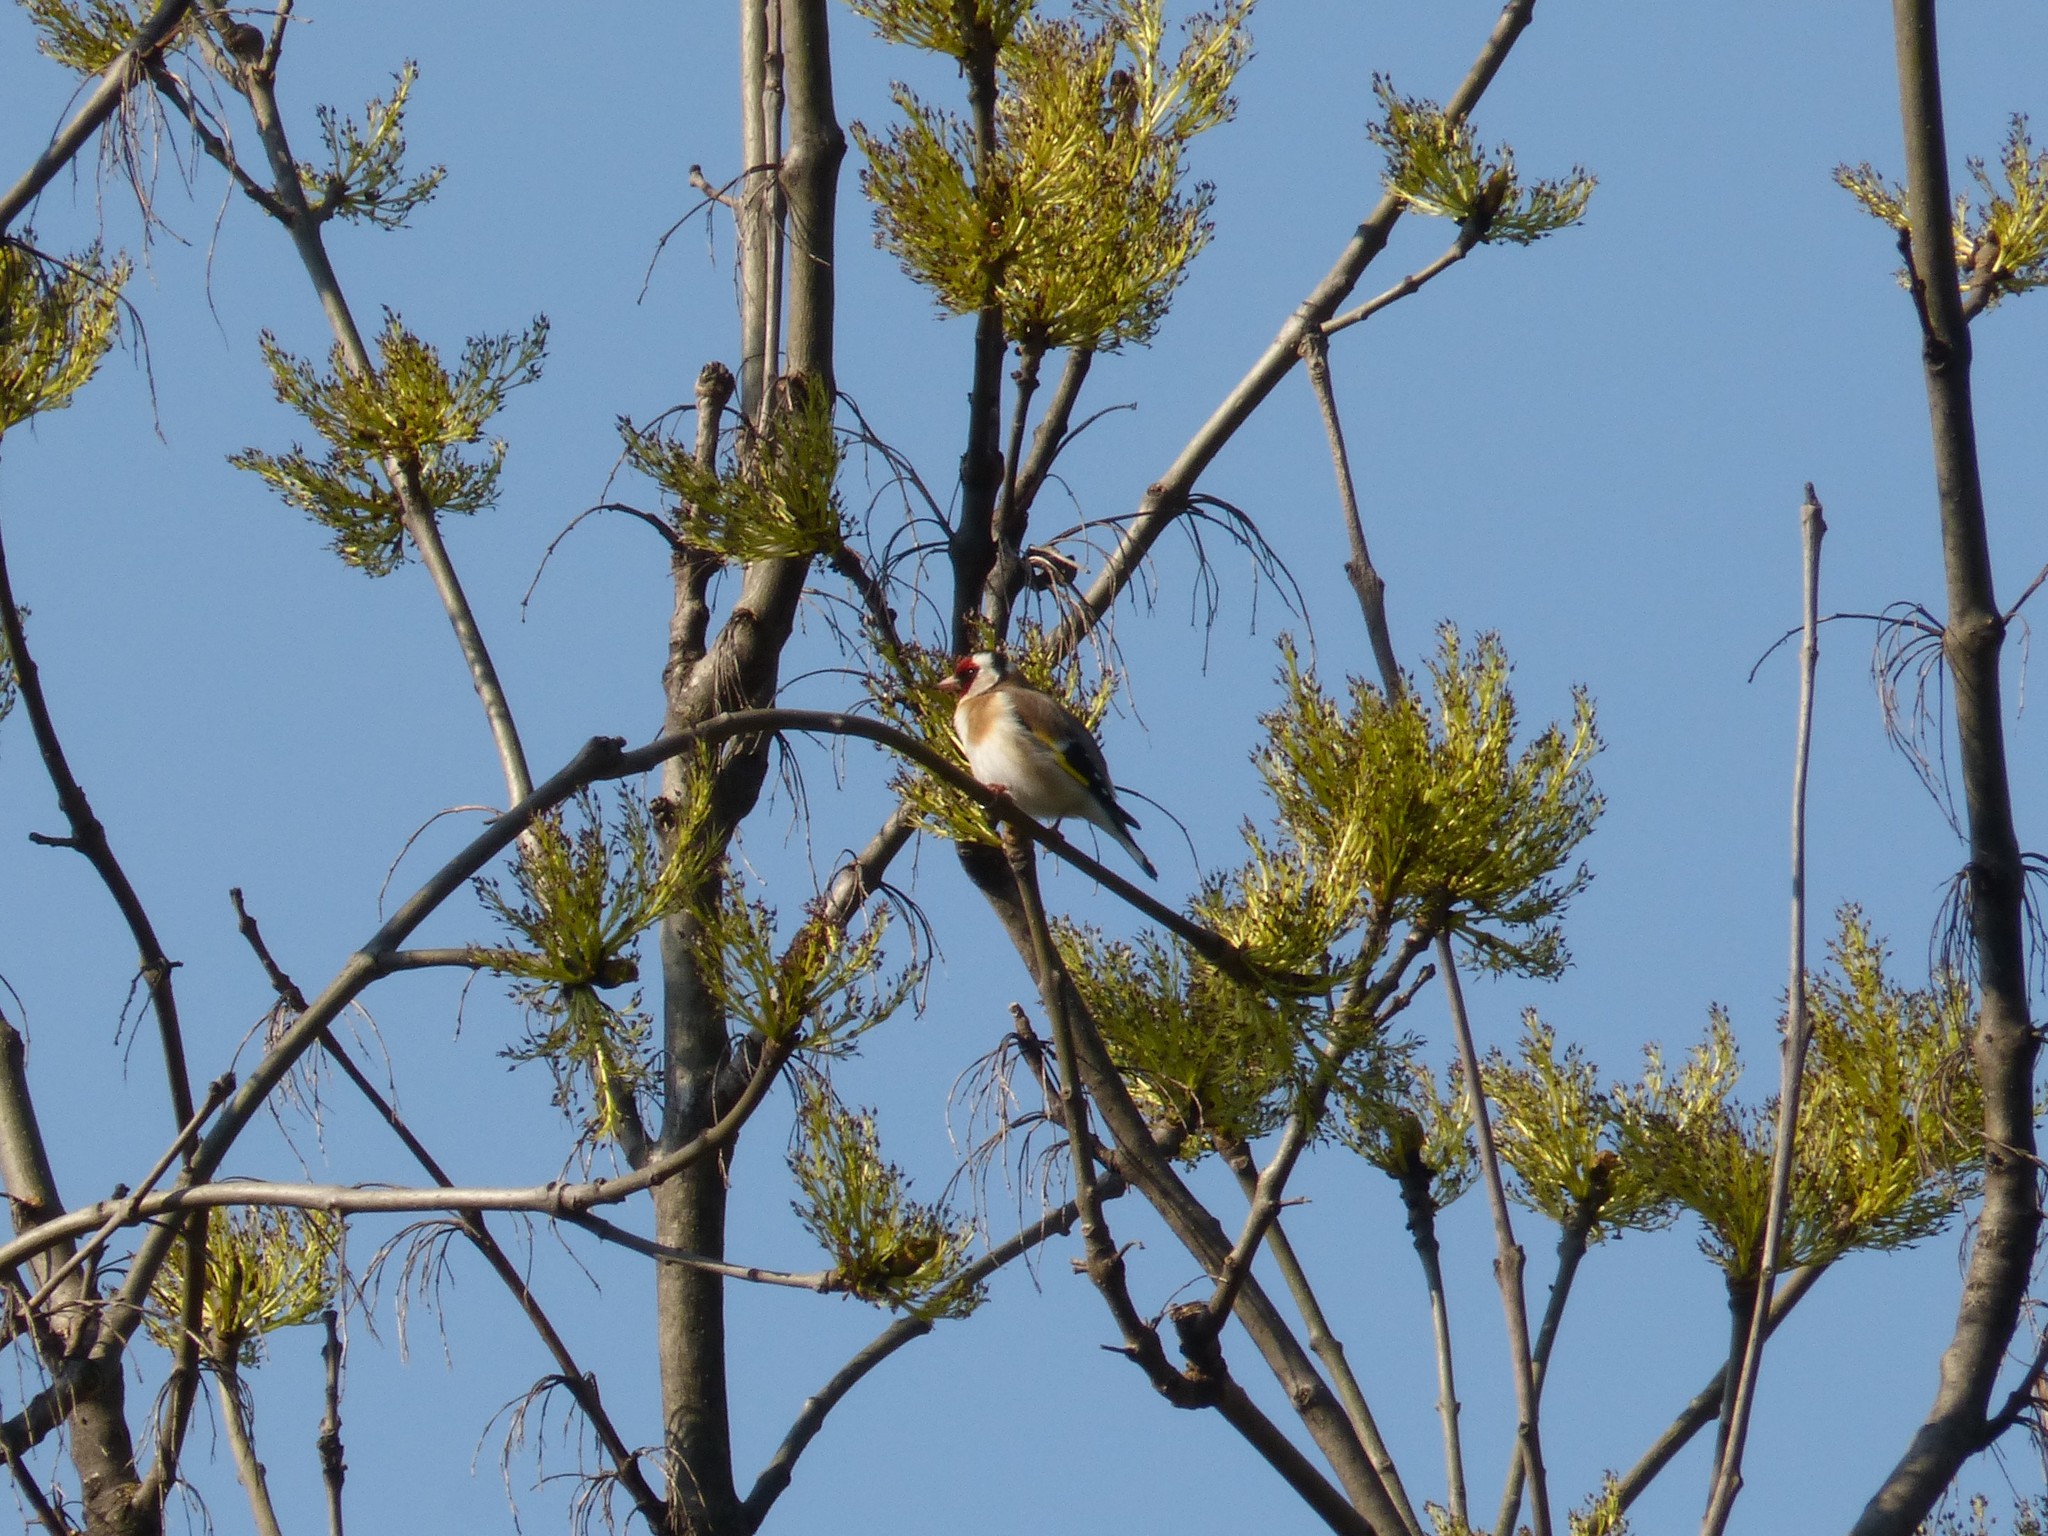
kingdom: Animalia
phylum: Chordata
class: Aves
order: Passeriformes
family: Fringillidae
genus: Carduelis
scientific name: Carduelis carduelis
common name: European goldfinch
